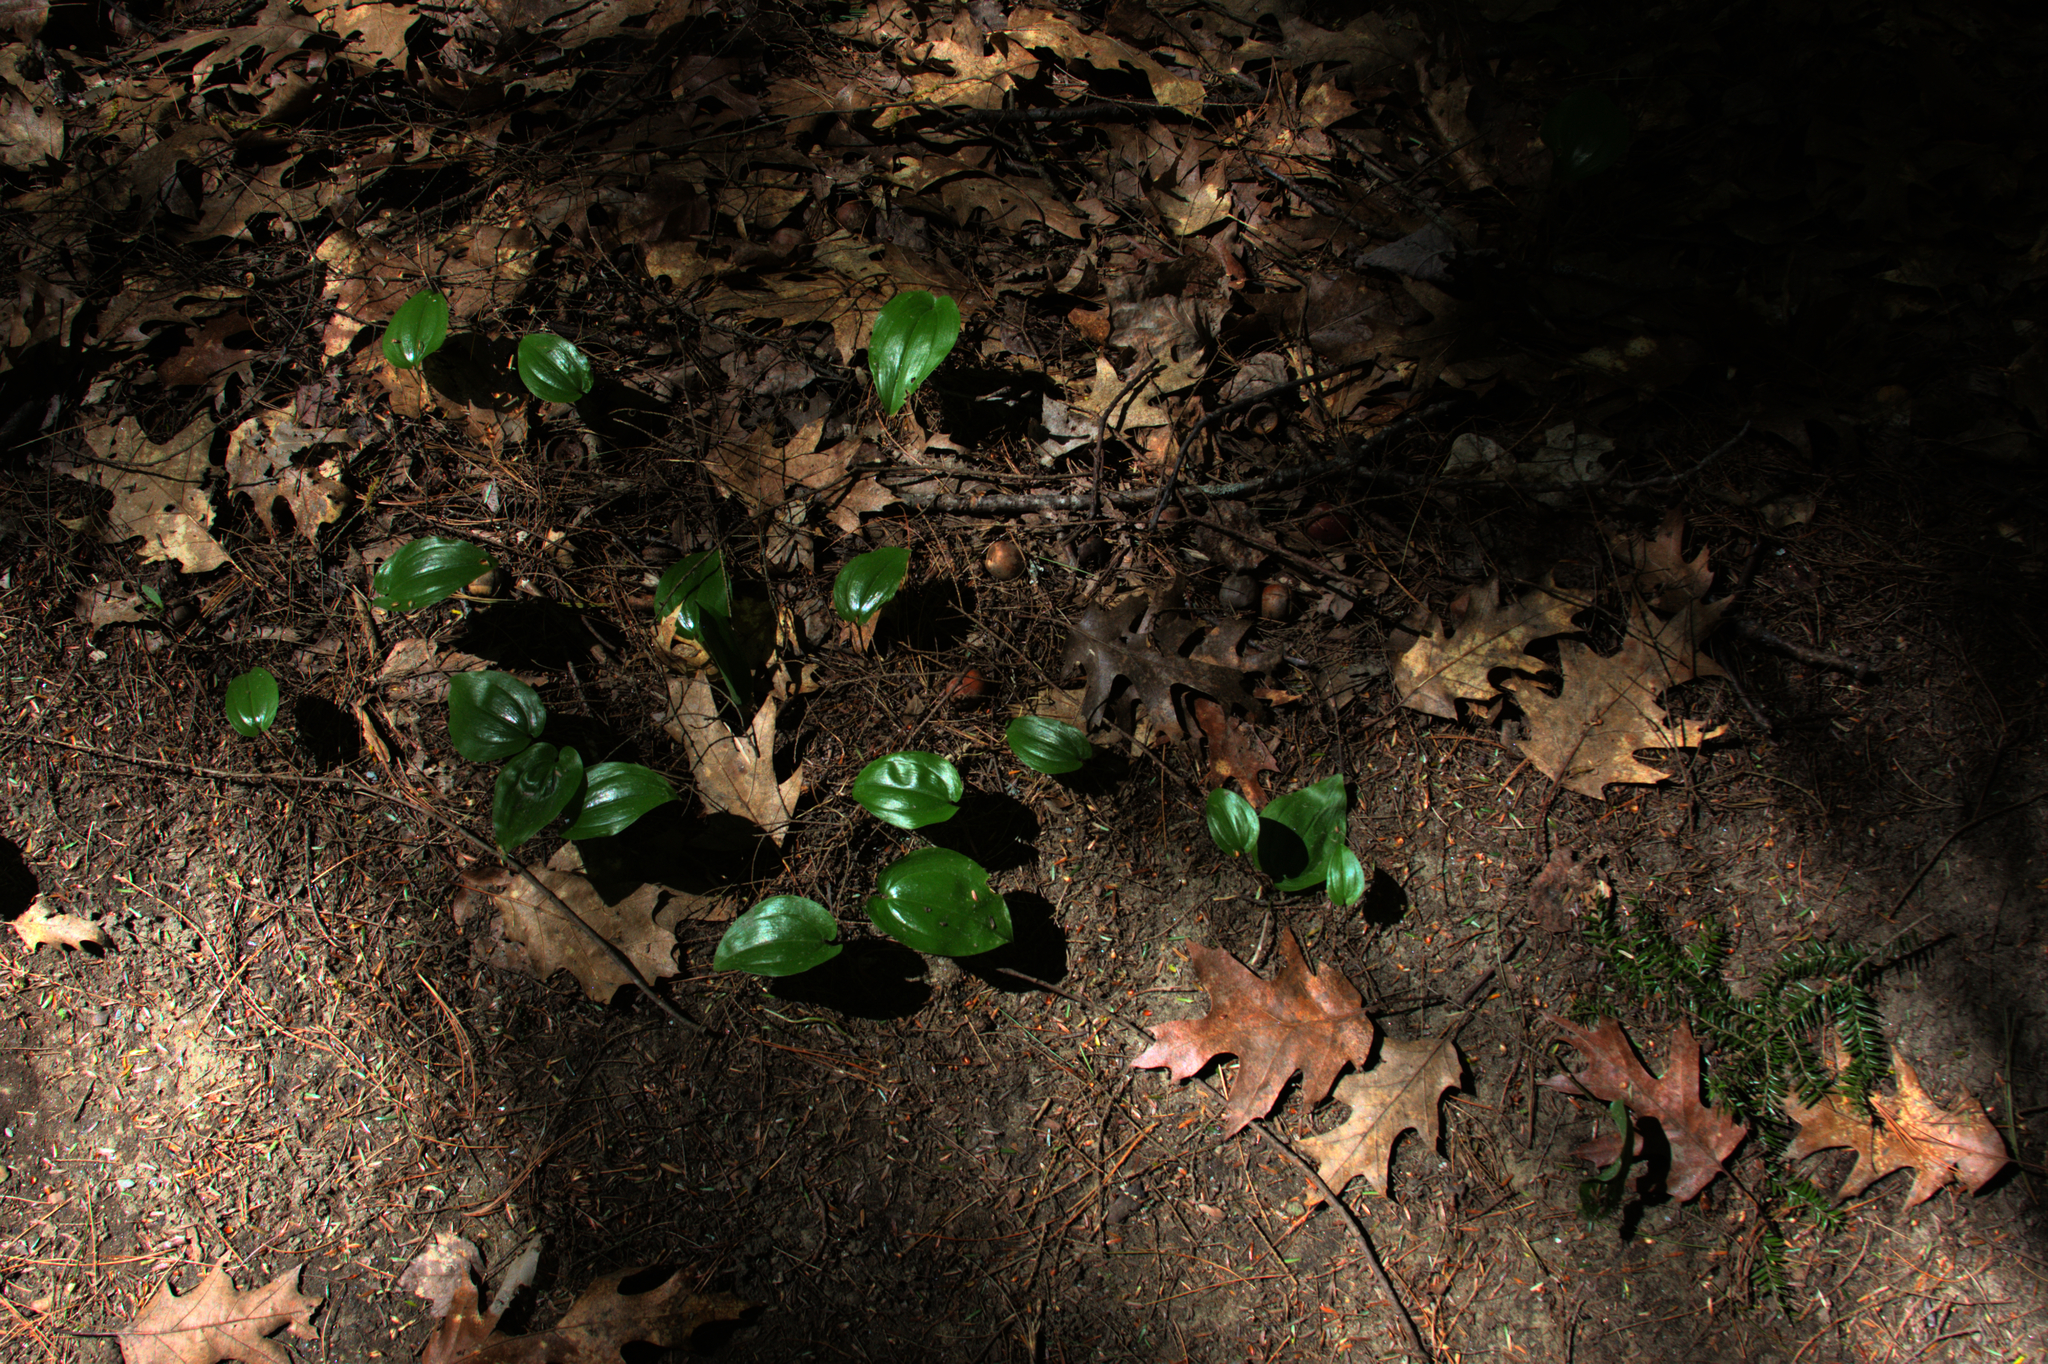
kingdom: Plantae
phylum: Tracheophyta
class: Liliopsida
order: Asparagales
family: Asparagaceae
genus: Maianthemum
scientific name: Maianthemum canadense
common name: False lily-of-the-valley
